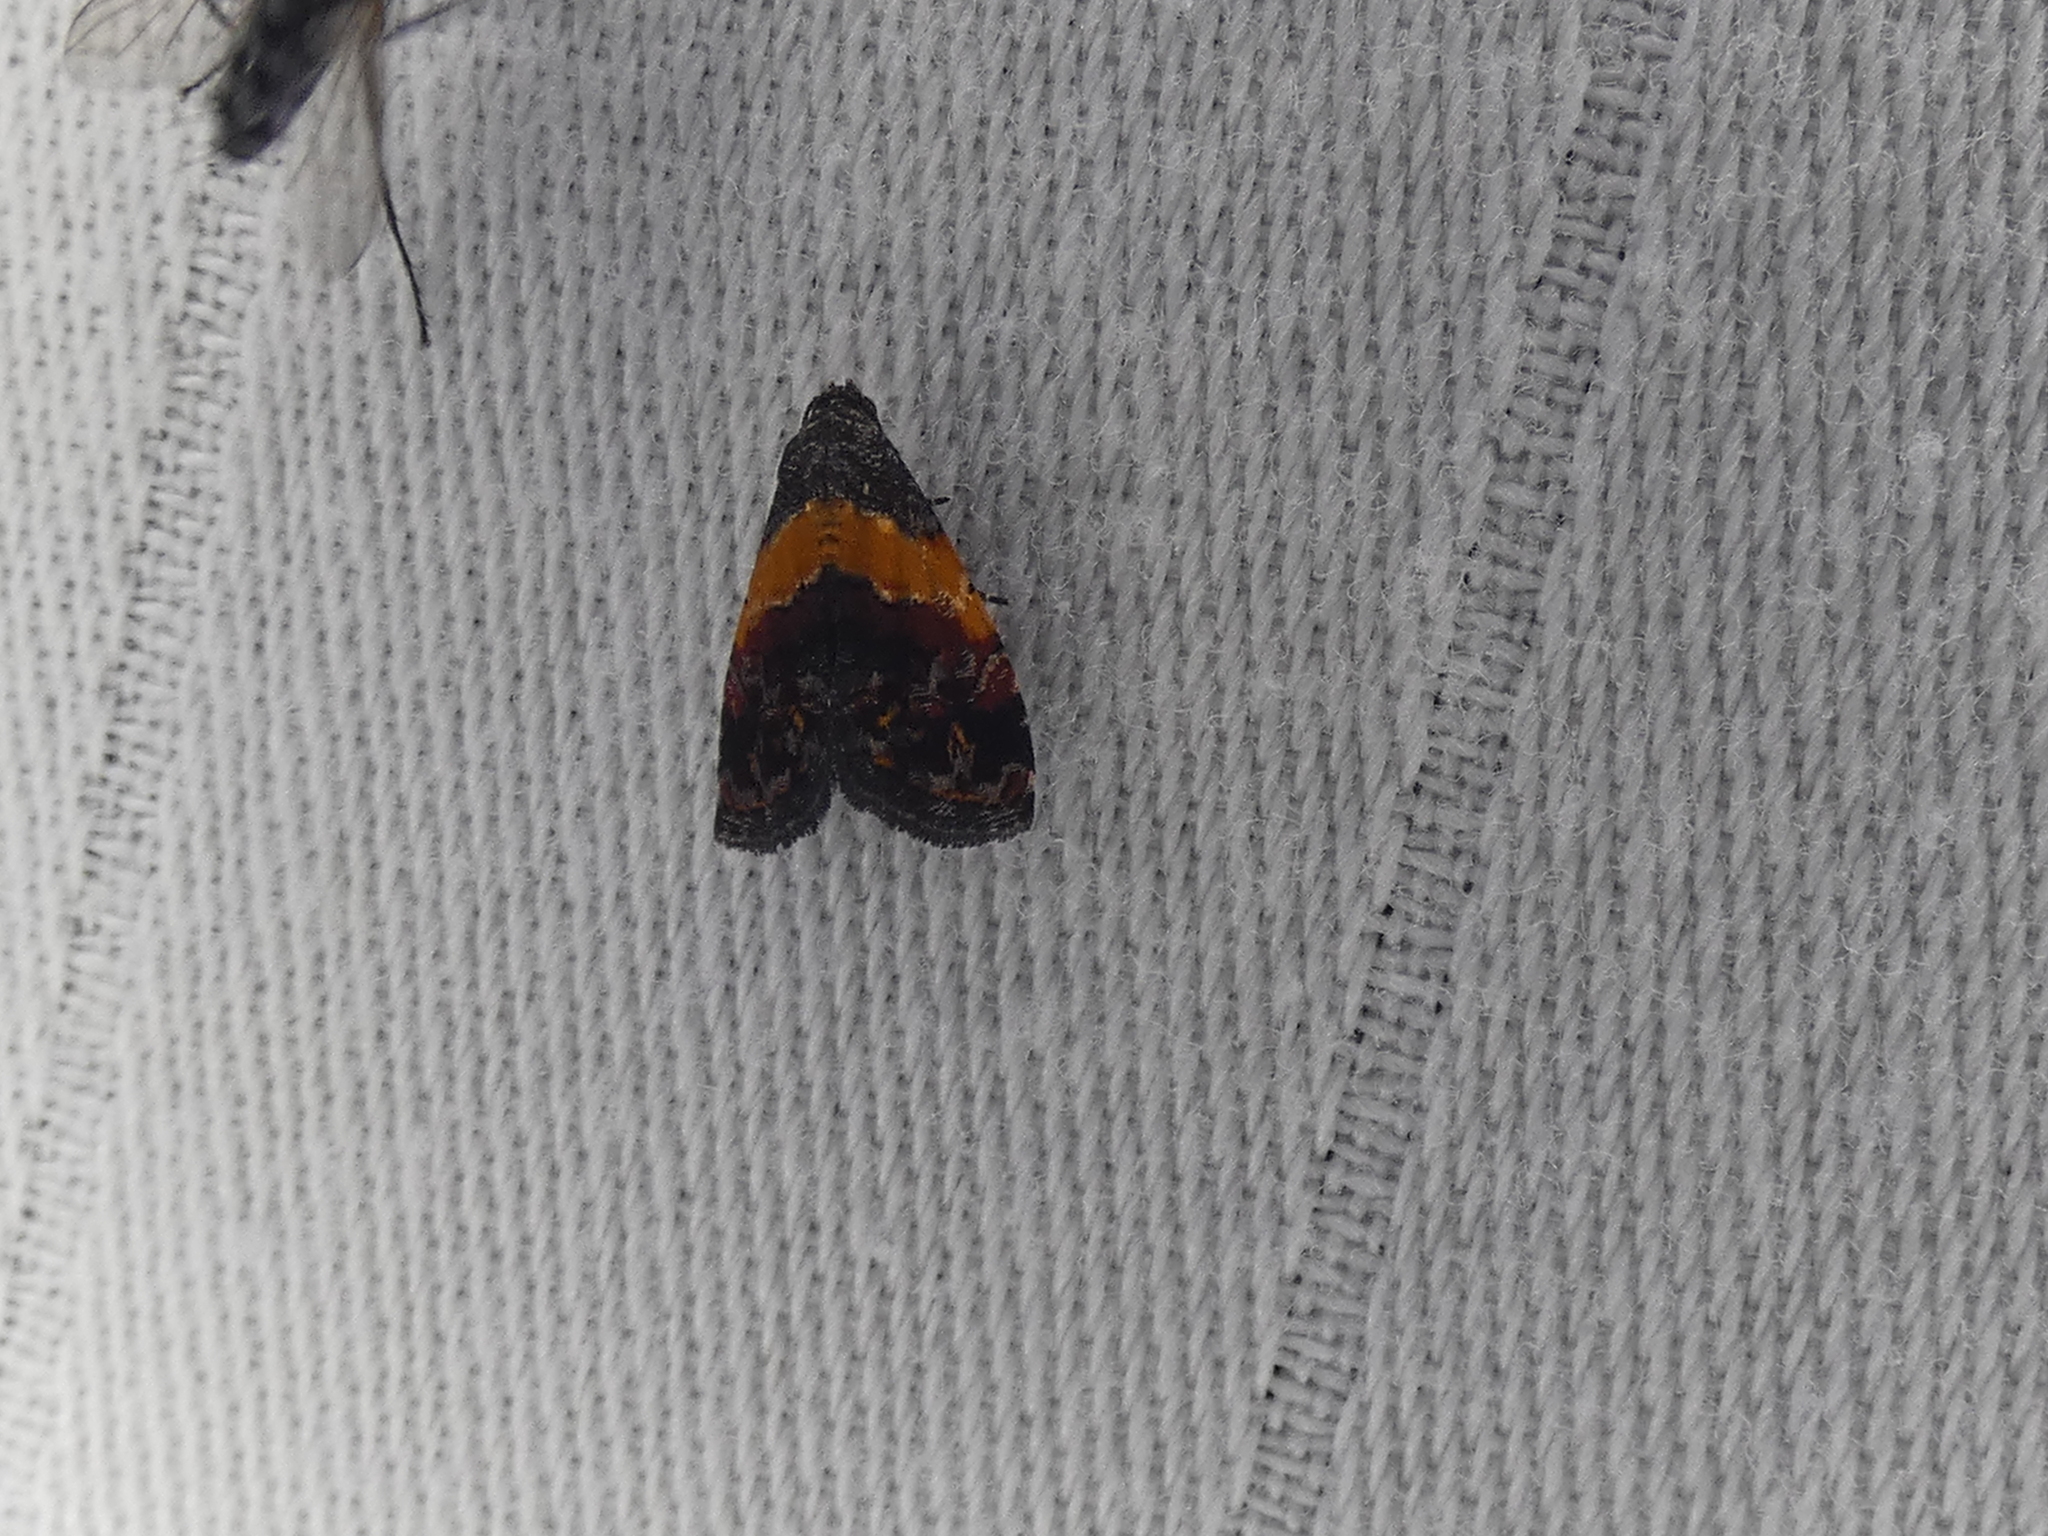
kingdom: Animalia
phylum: Arthropoda
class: Insecta
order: Lepidoptera
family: Noctuidae
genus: Tripudia
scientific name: Tripudia flavofasciata
